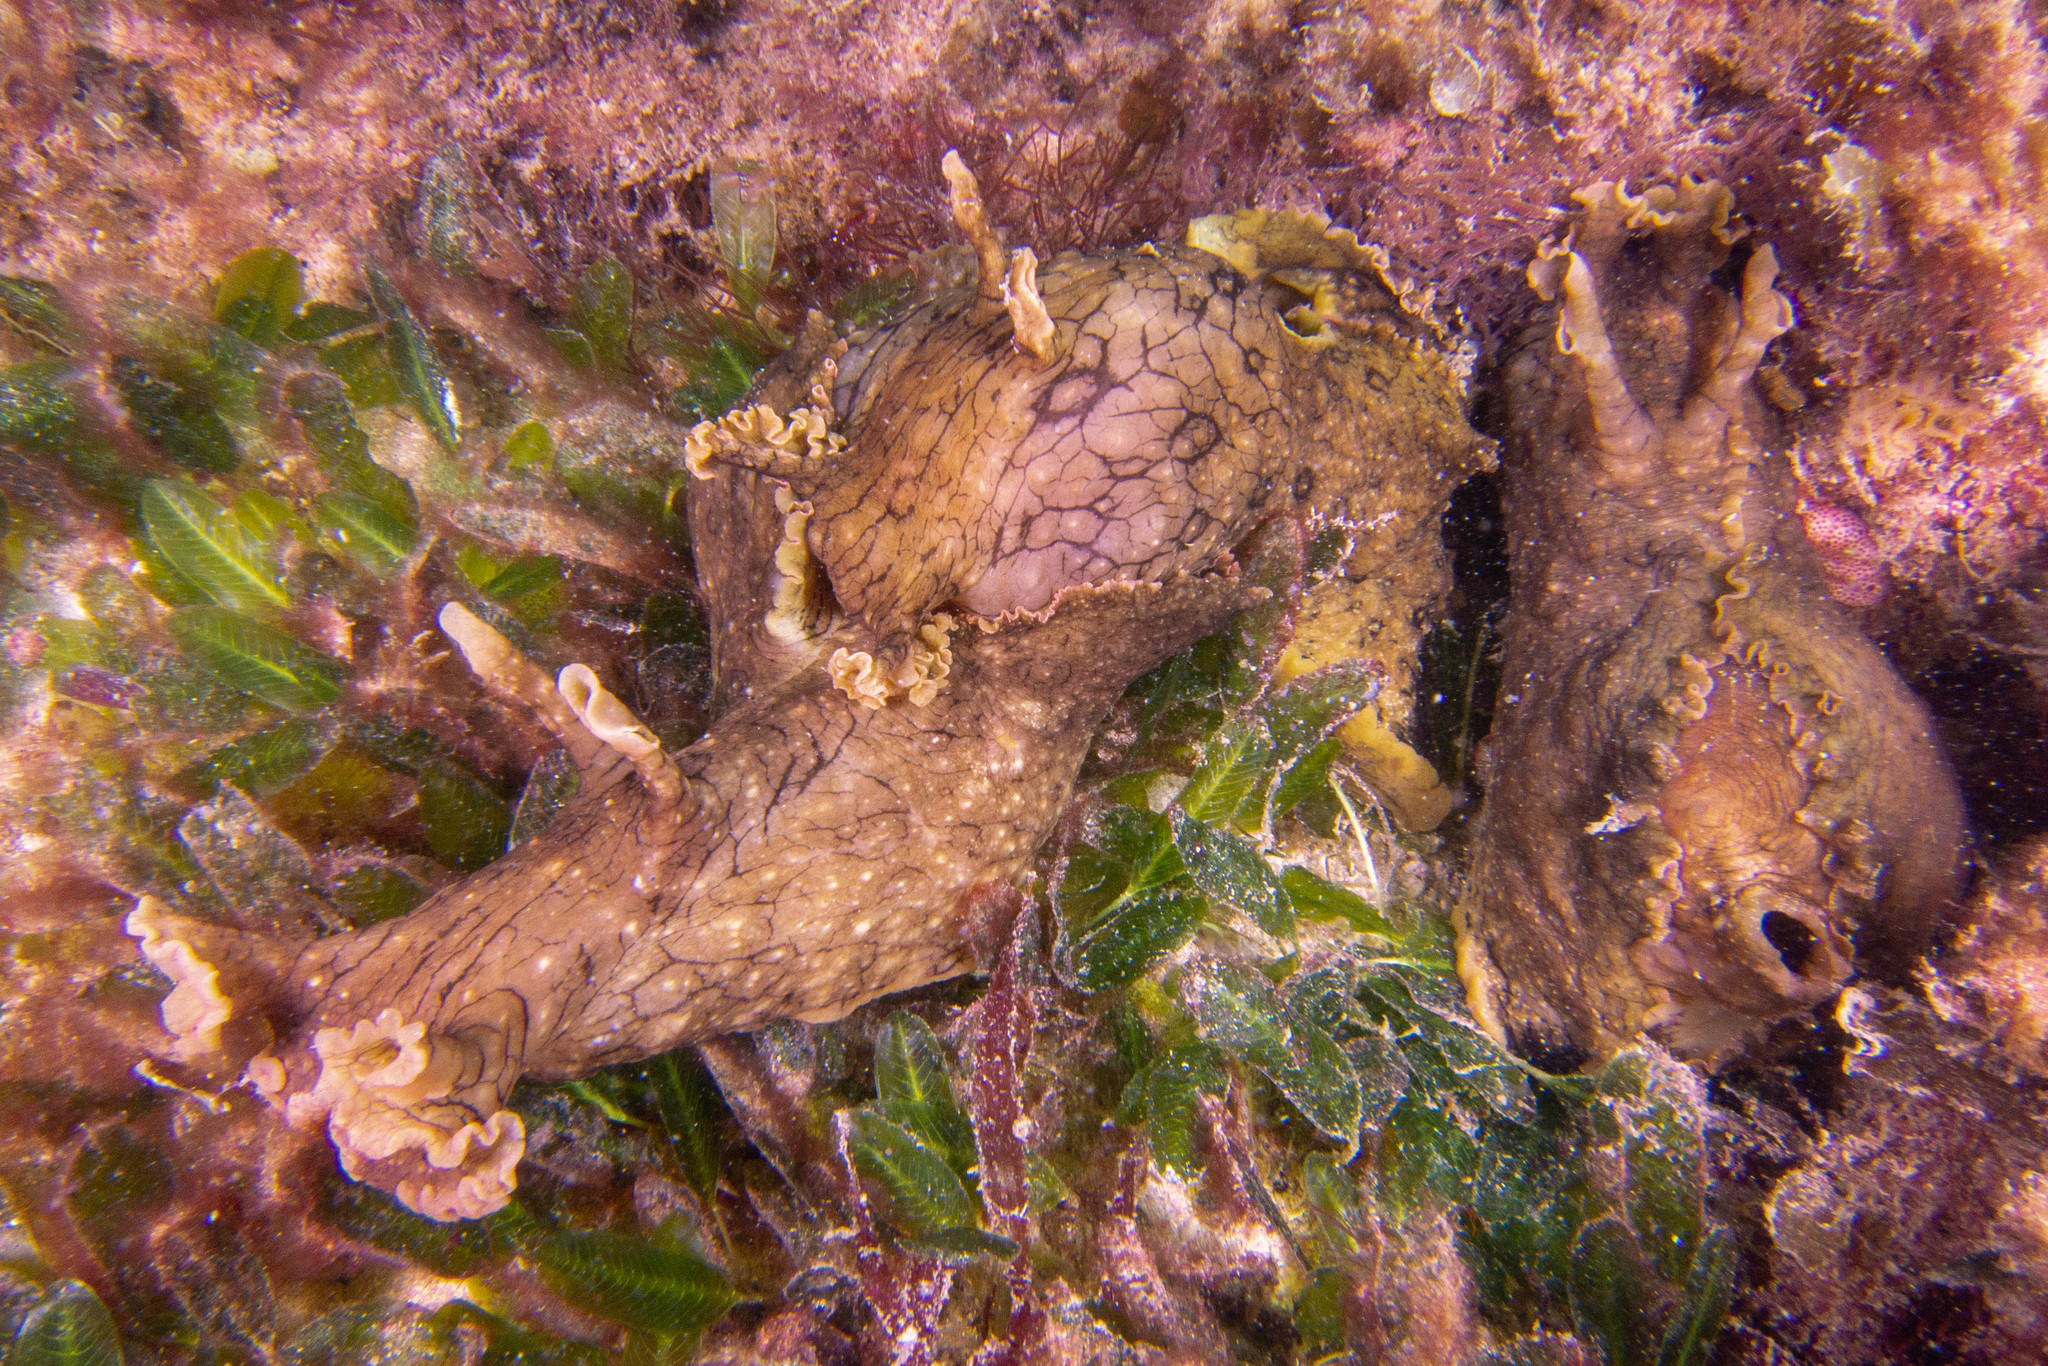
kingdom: Animalia
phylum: Mollusca
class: Gastropoda
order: Aplysiida
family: Aplysiidae
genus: Aplysia
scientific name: Aplysia argus
